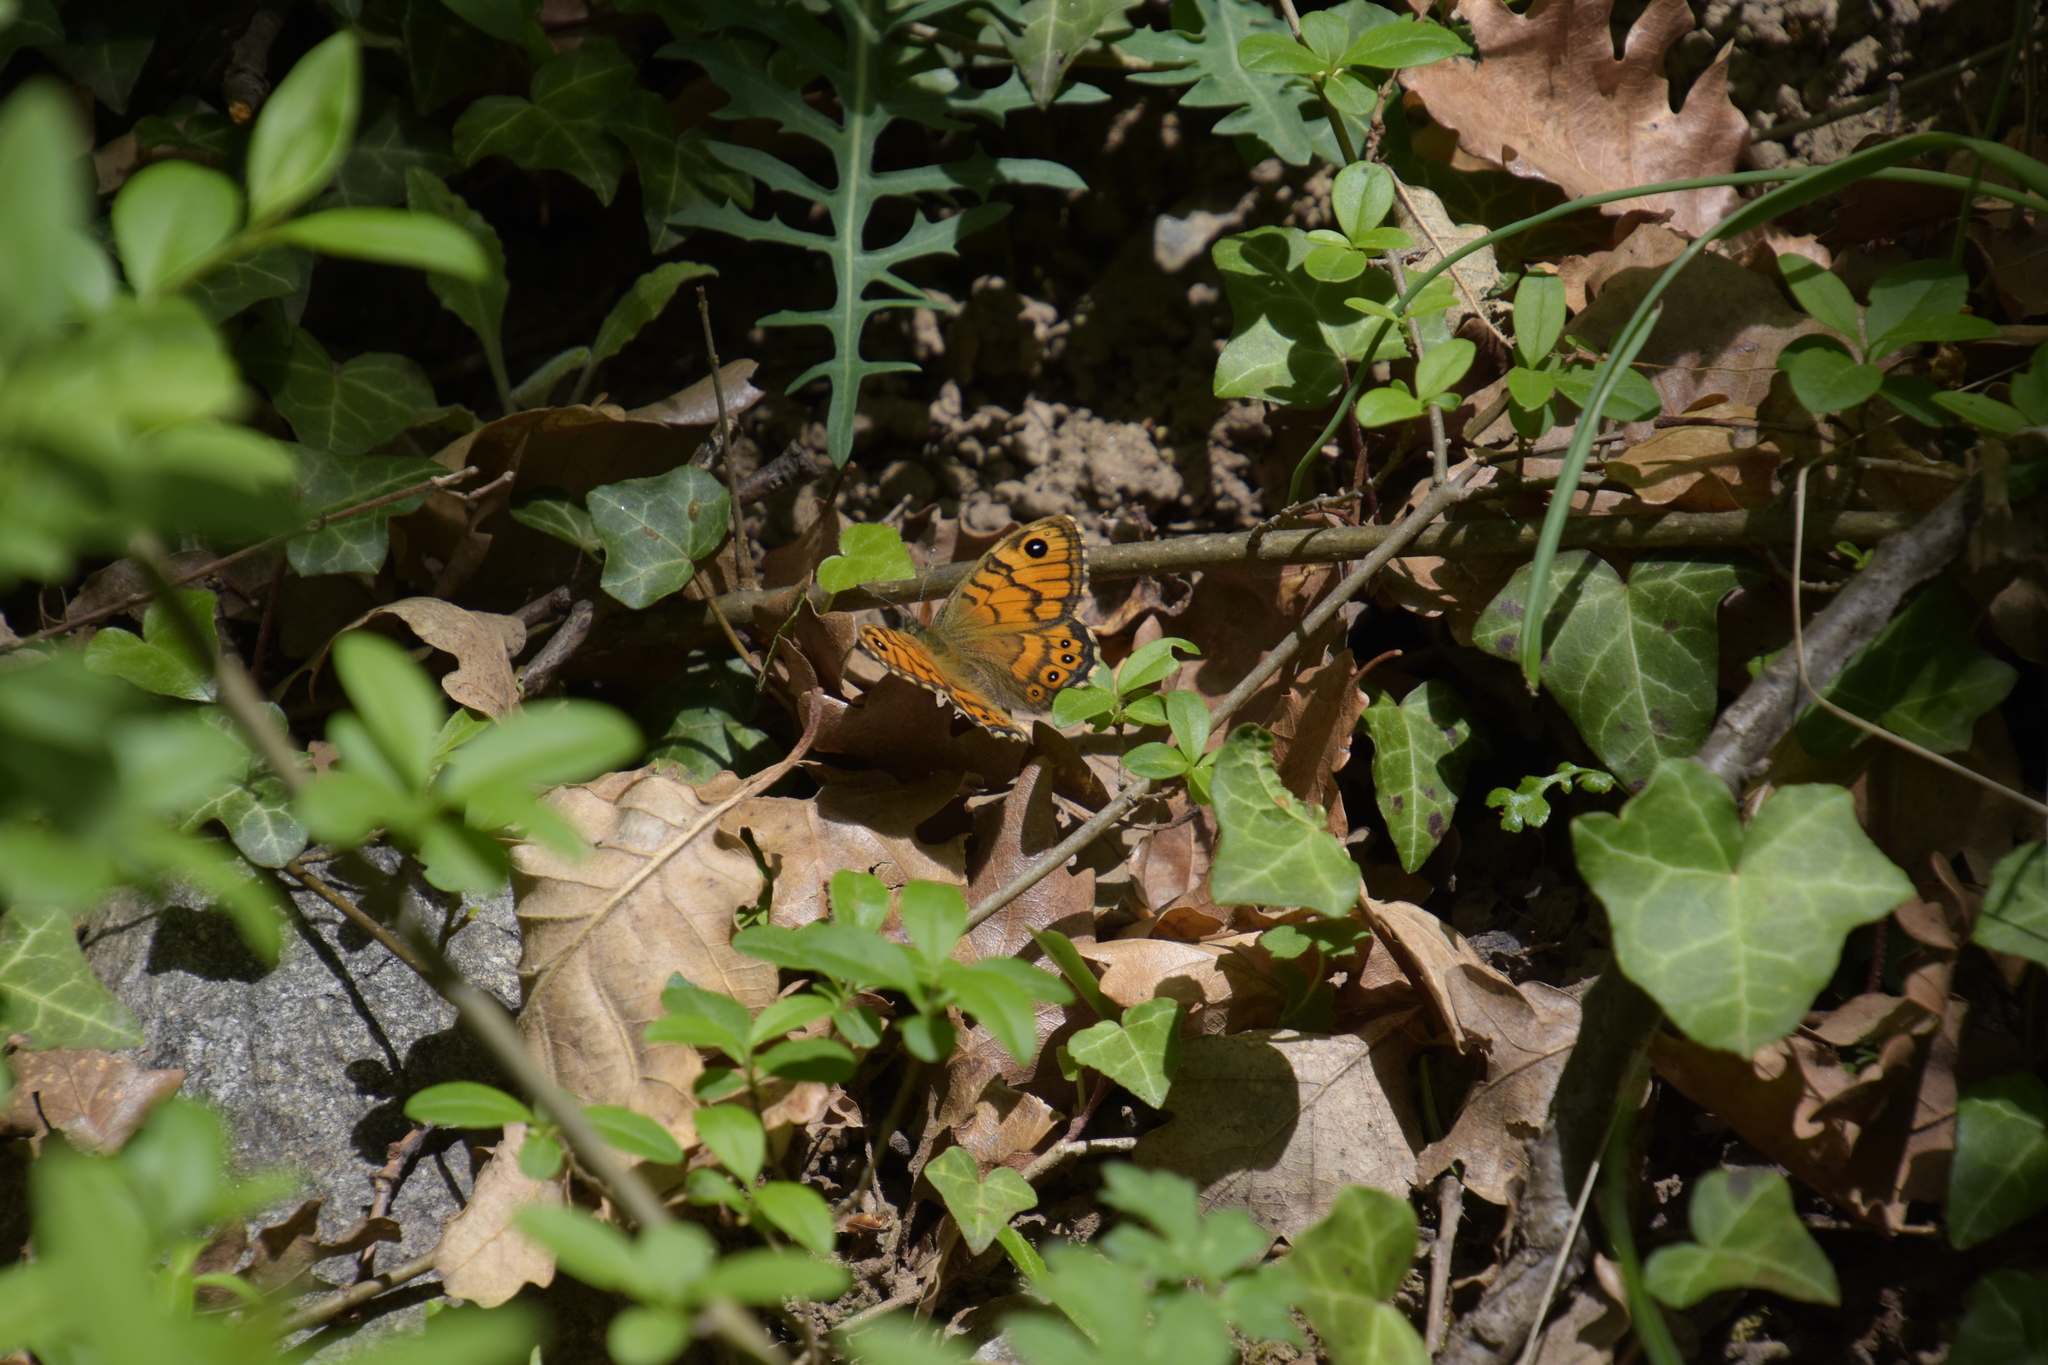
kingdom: Animalia
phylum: Arthropoda
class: Insecta
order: Lepidoptera
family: Nymphalidae
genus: Pararge
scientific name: Pararge Lasiommata megera
